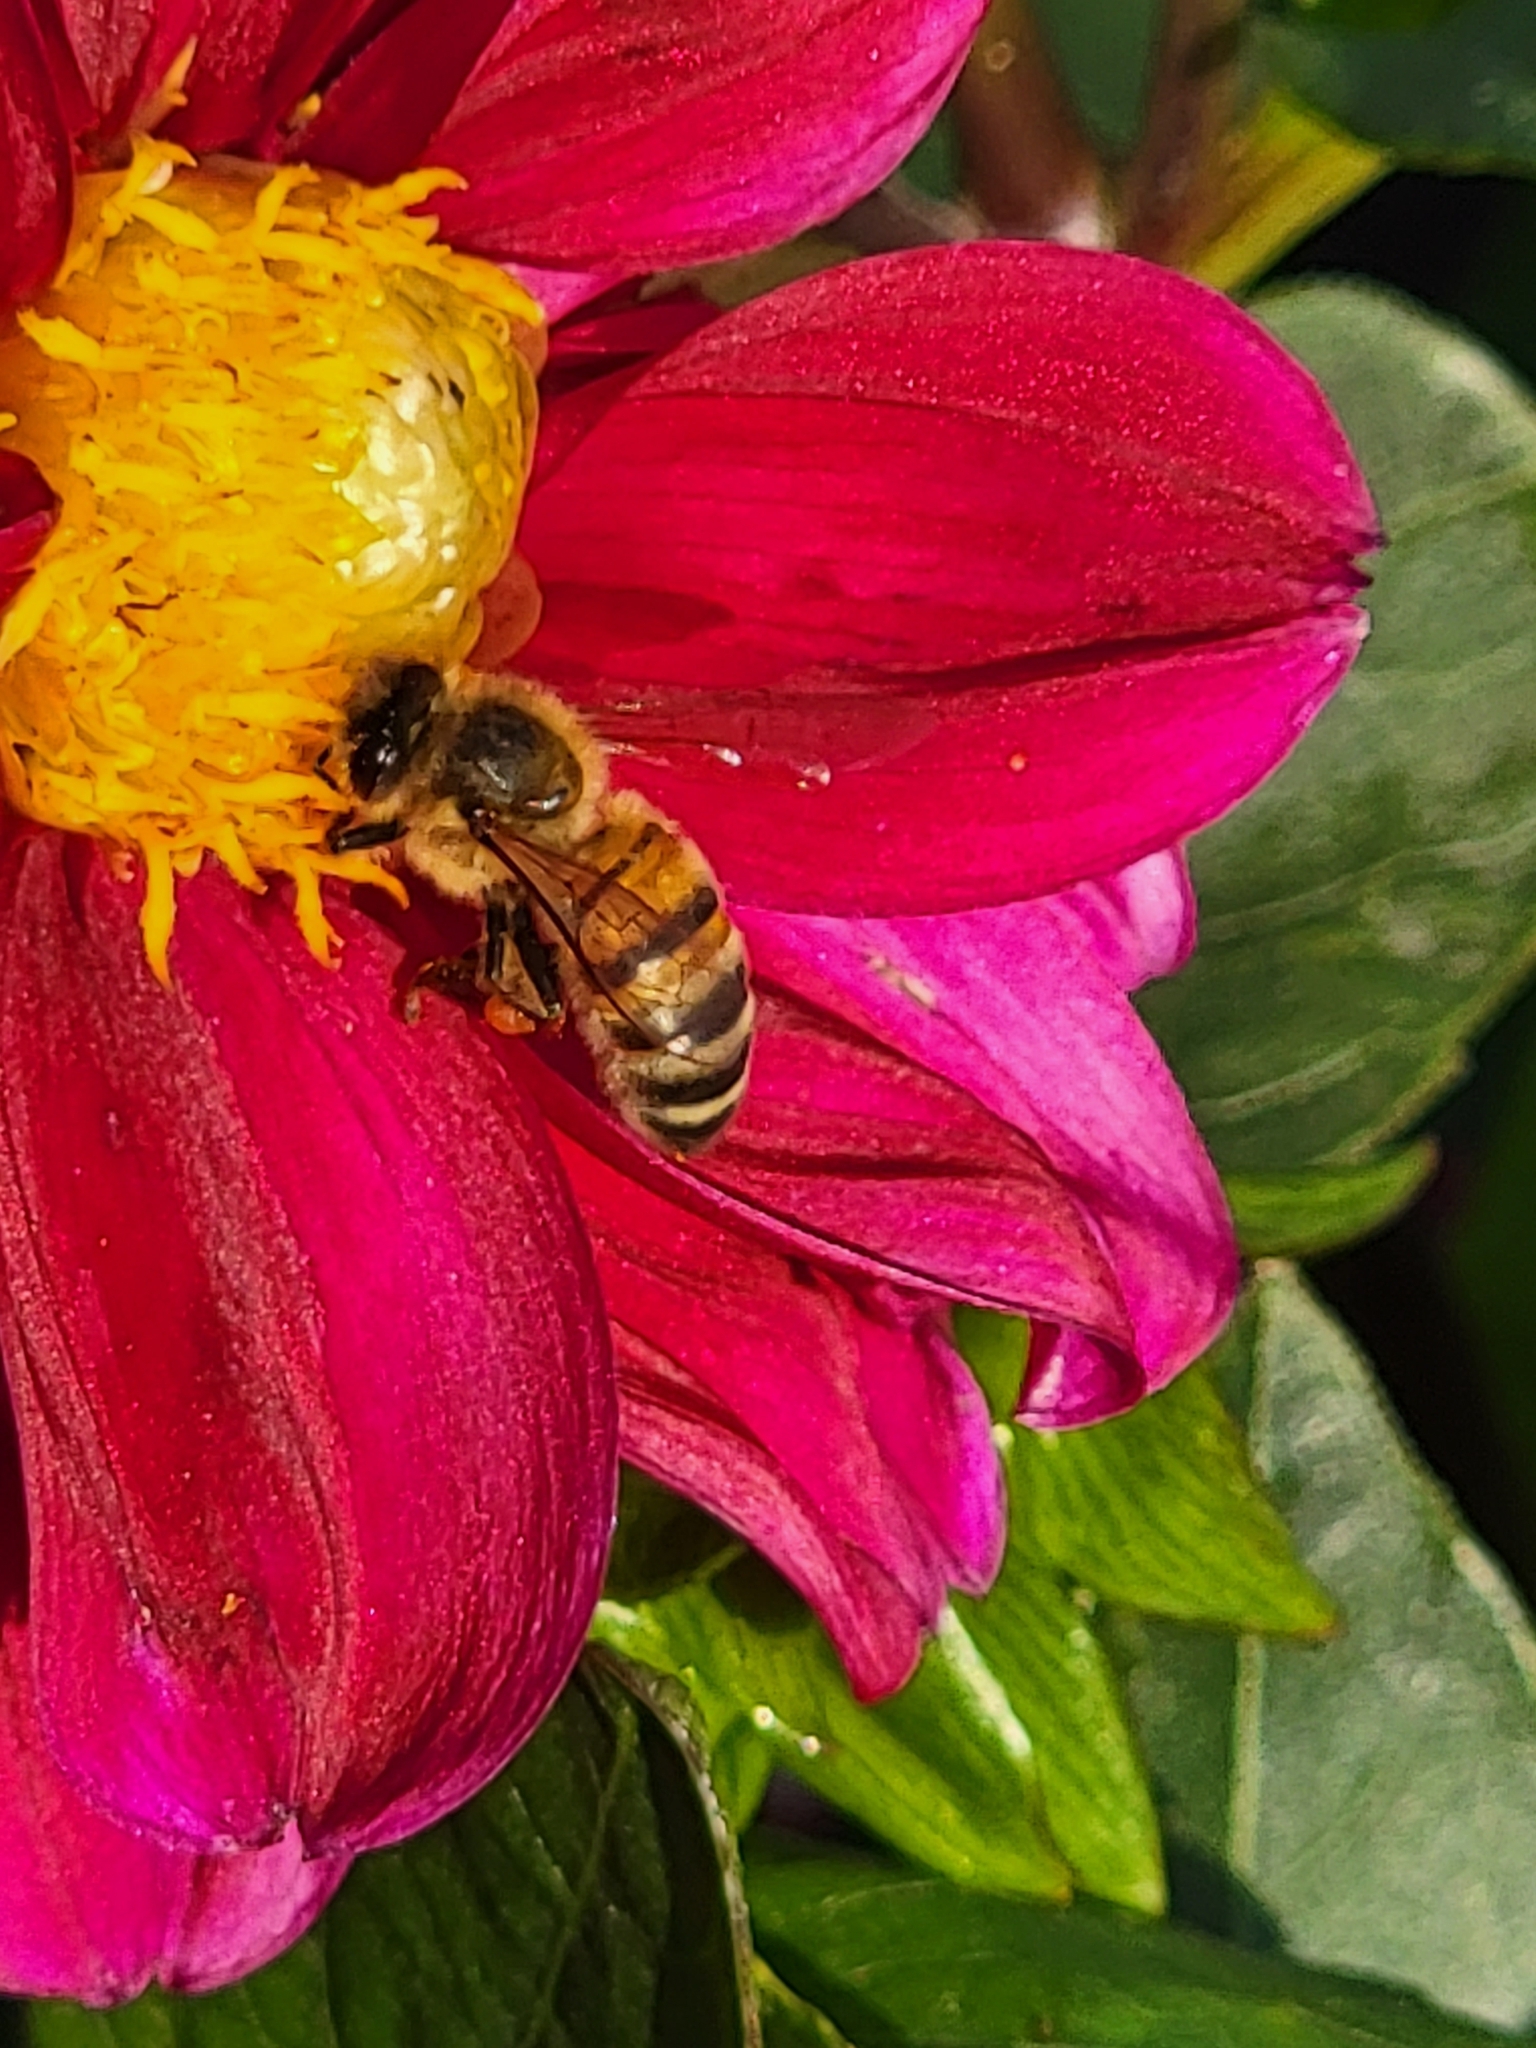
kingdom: Animalia
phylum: Arthropoda
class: Insecta
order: Hymenoptera
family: Apidae
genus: Apis
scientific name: Apis mellifera
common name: Honey bee
